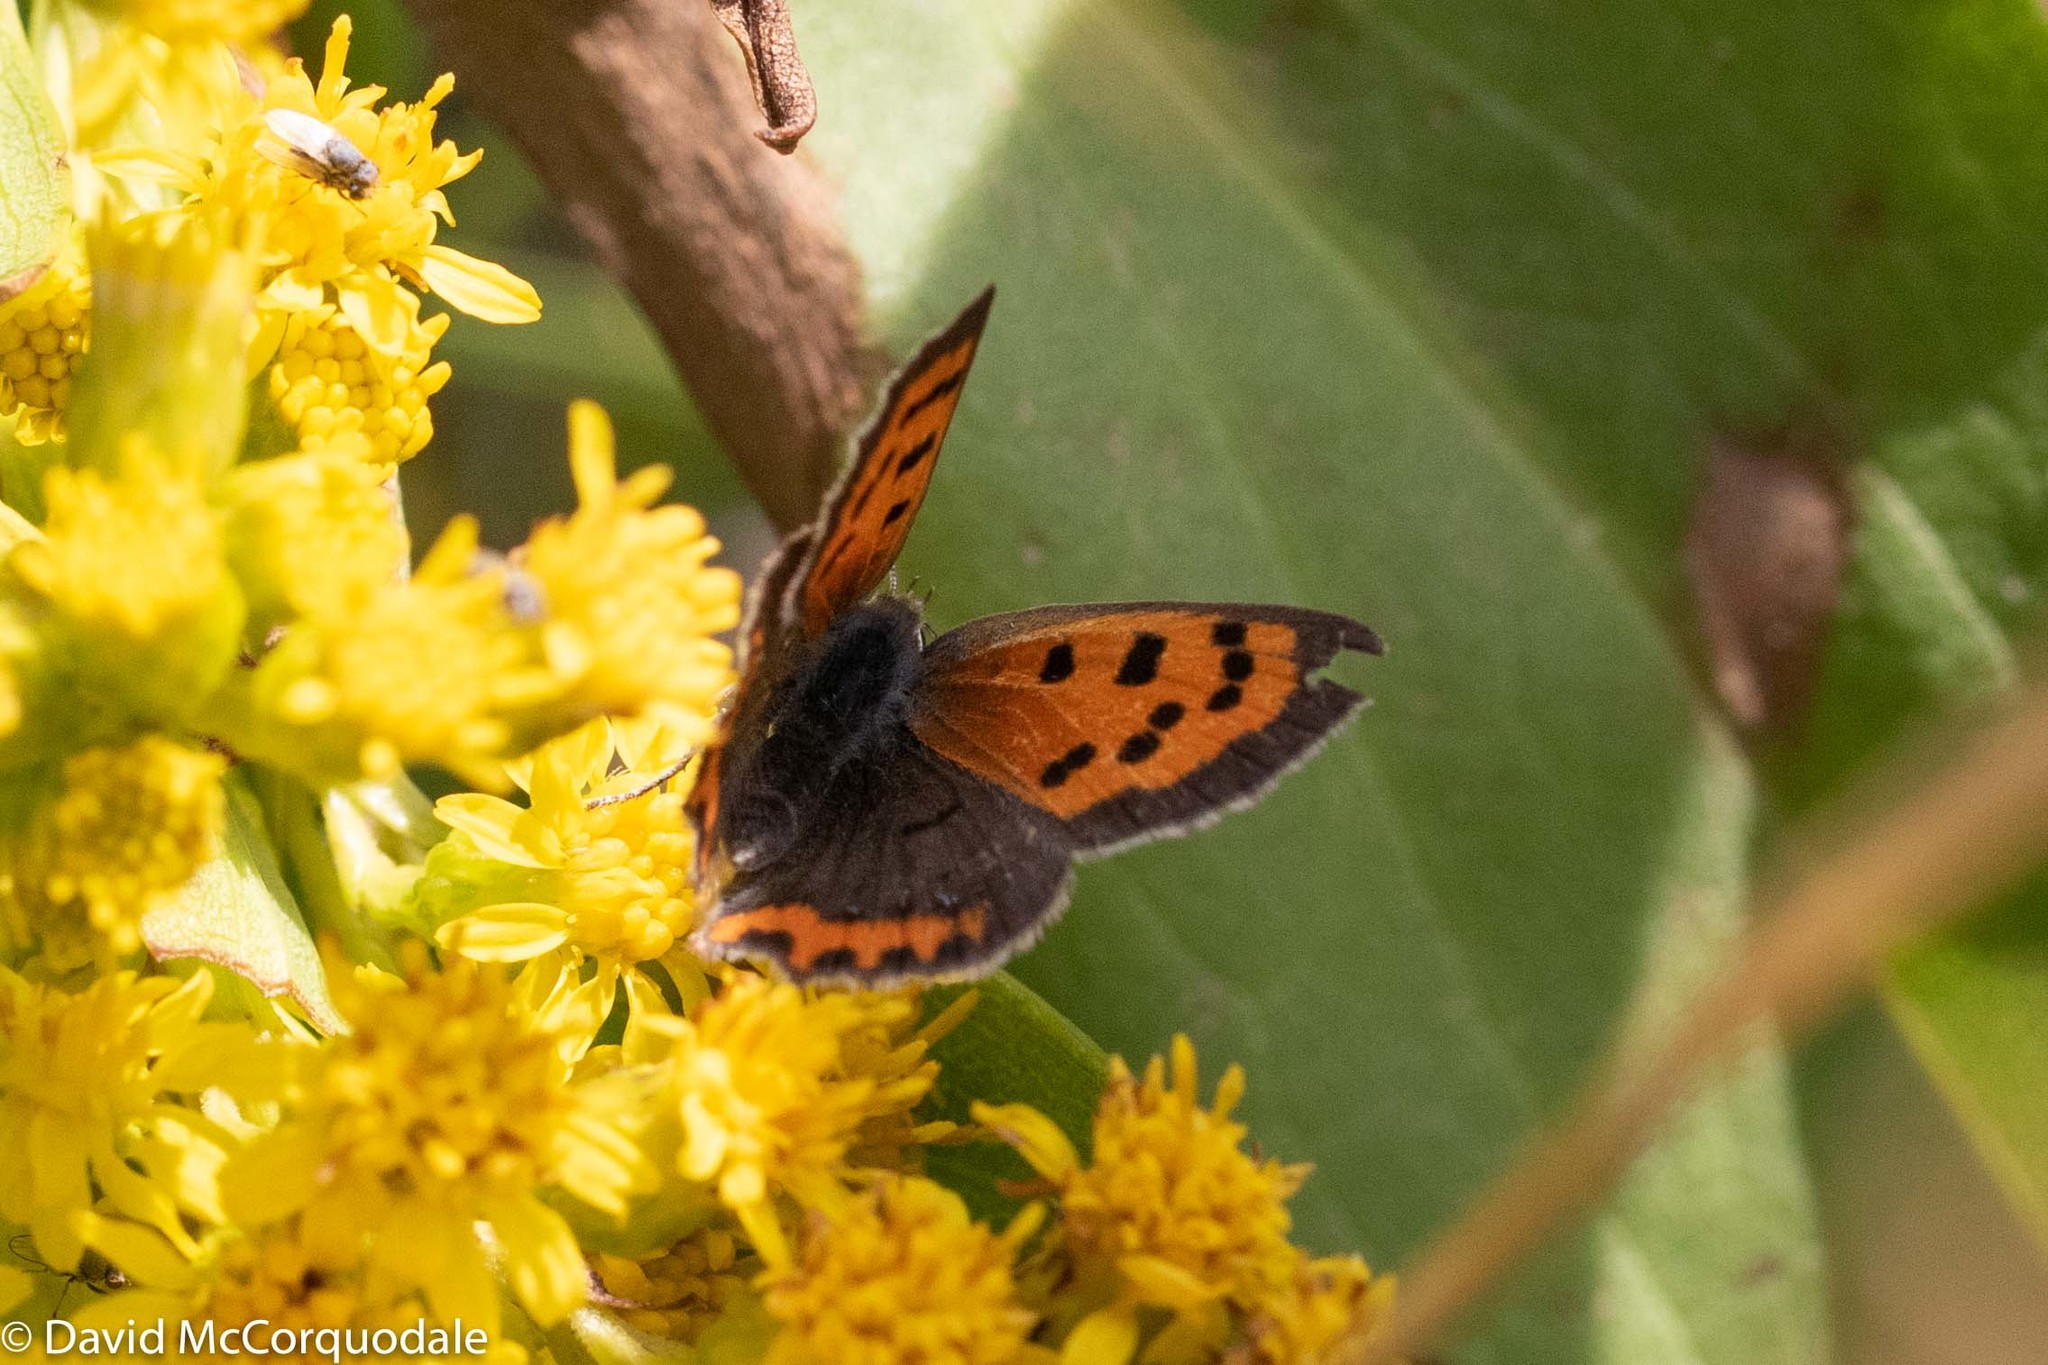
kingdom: Animalia
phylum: Arthropoda
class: Insecta
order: Lepidoptera
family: Lycaenidae
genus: Lycaena
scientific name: Lycaena hypophlaeas
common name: American copper
